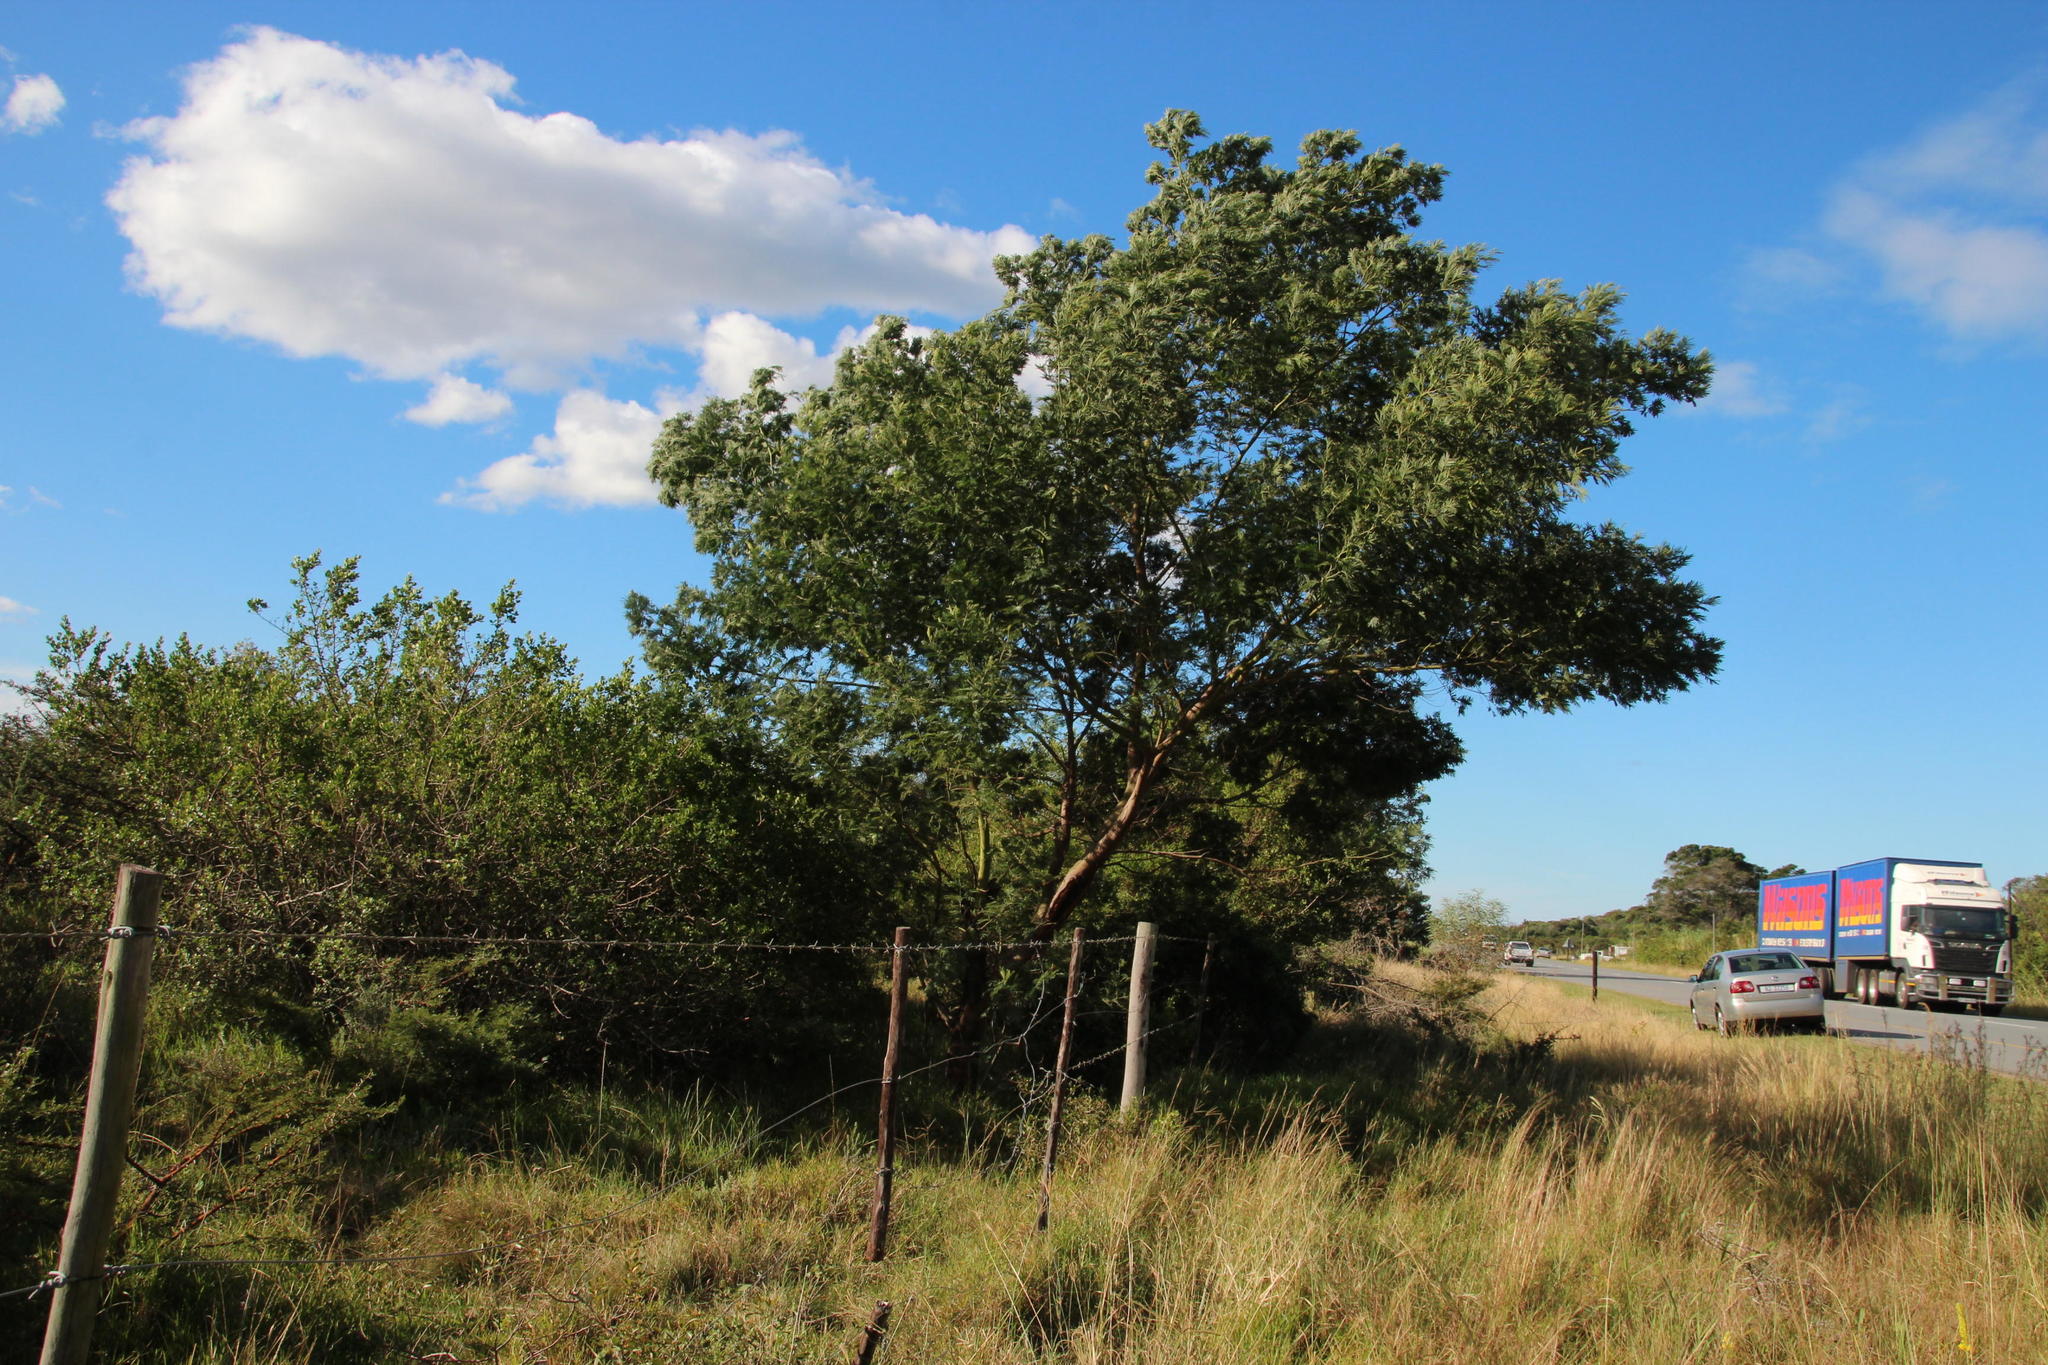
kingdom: Plantae
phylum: Tracheophyta
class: Magnoliopsida
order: Fabales
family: Fabaceae
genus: Acacia
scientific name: Acacia mearnsii
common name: Black wattle
